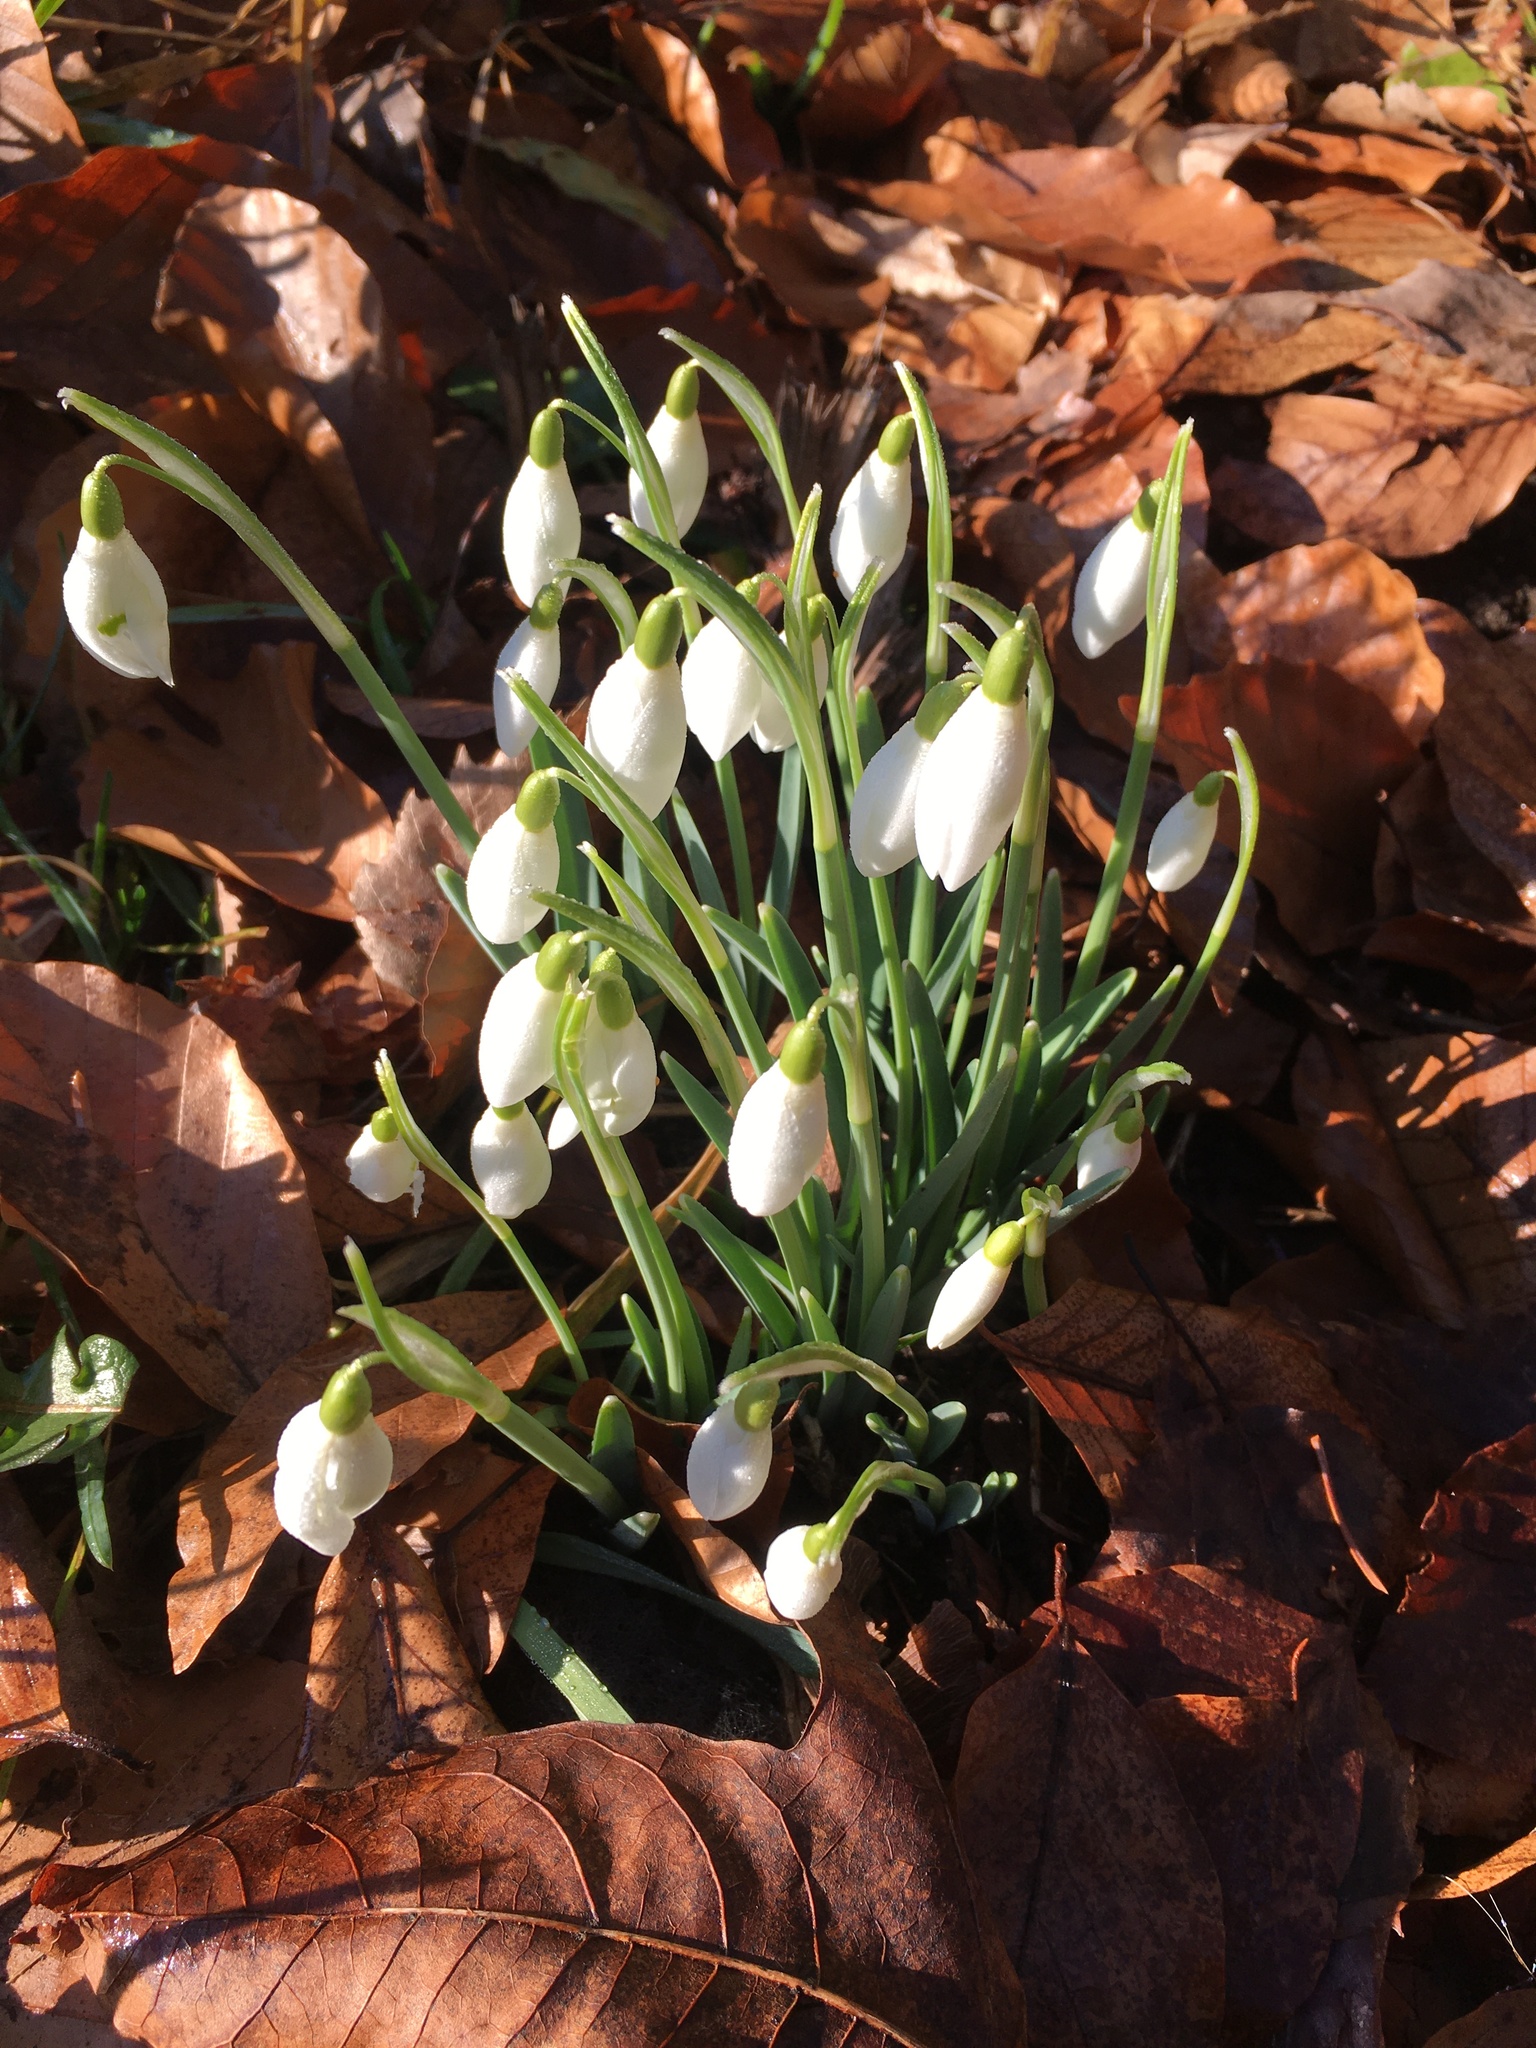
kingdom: Plantae
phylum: Tracheophyta
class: Liliopsida
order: Asparagales
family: Amaryllidaceae
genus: Galanthus
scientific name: Galanthus nivalis
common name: Snowdrop
